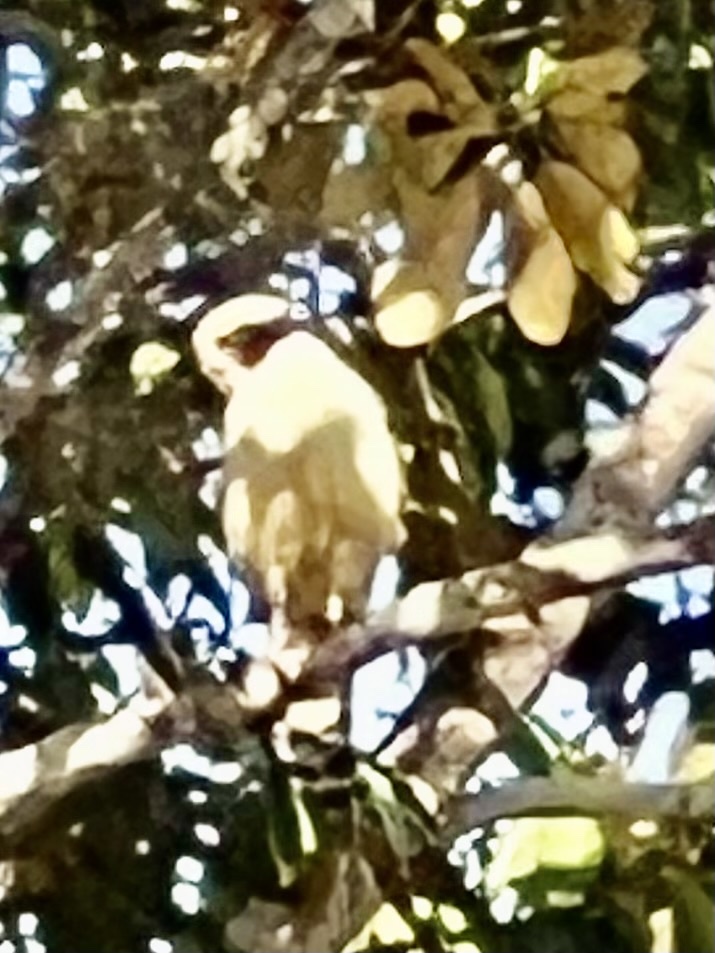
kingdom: Animalia
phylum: Chordata
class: Aves
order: Falconiformes
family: Falconidae
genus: Herpetotheres
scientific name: Herpetotheres cachinnans
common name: Laughing falcon
